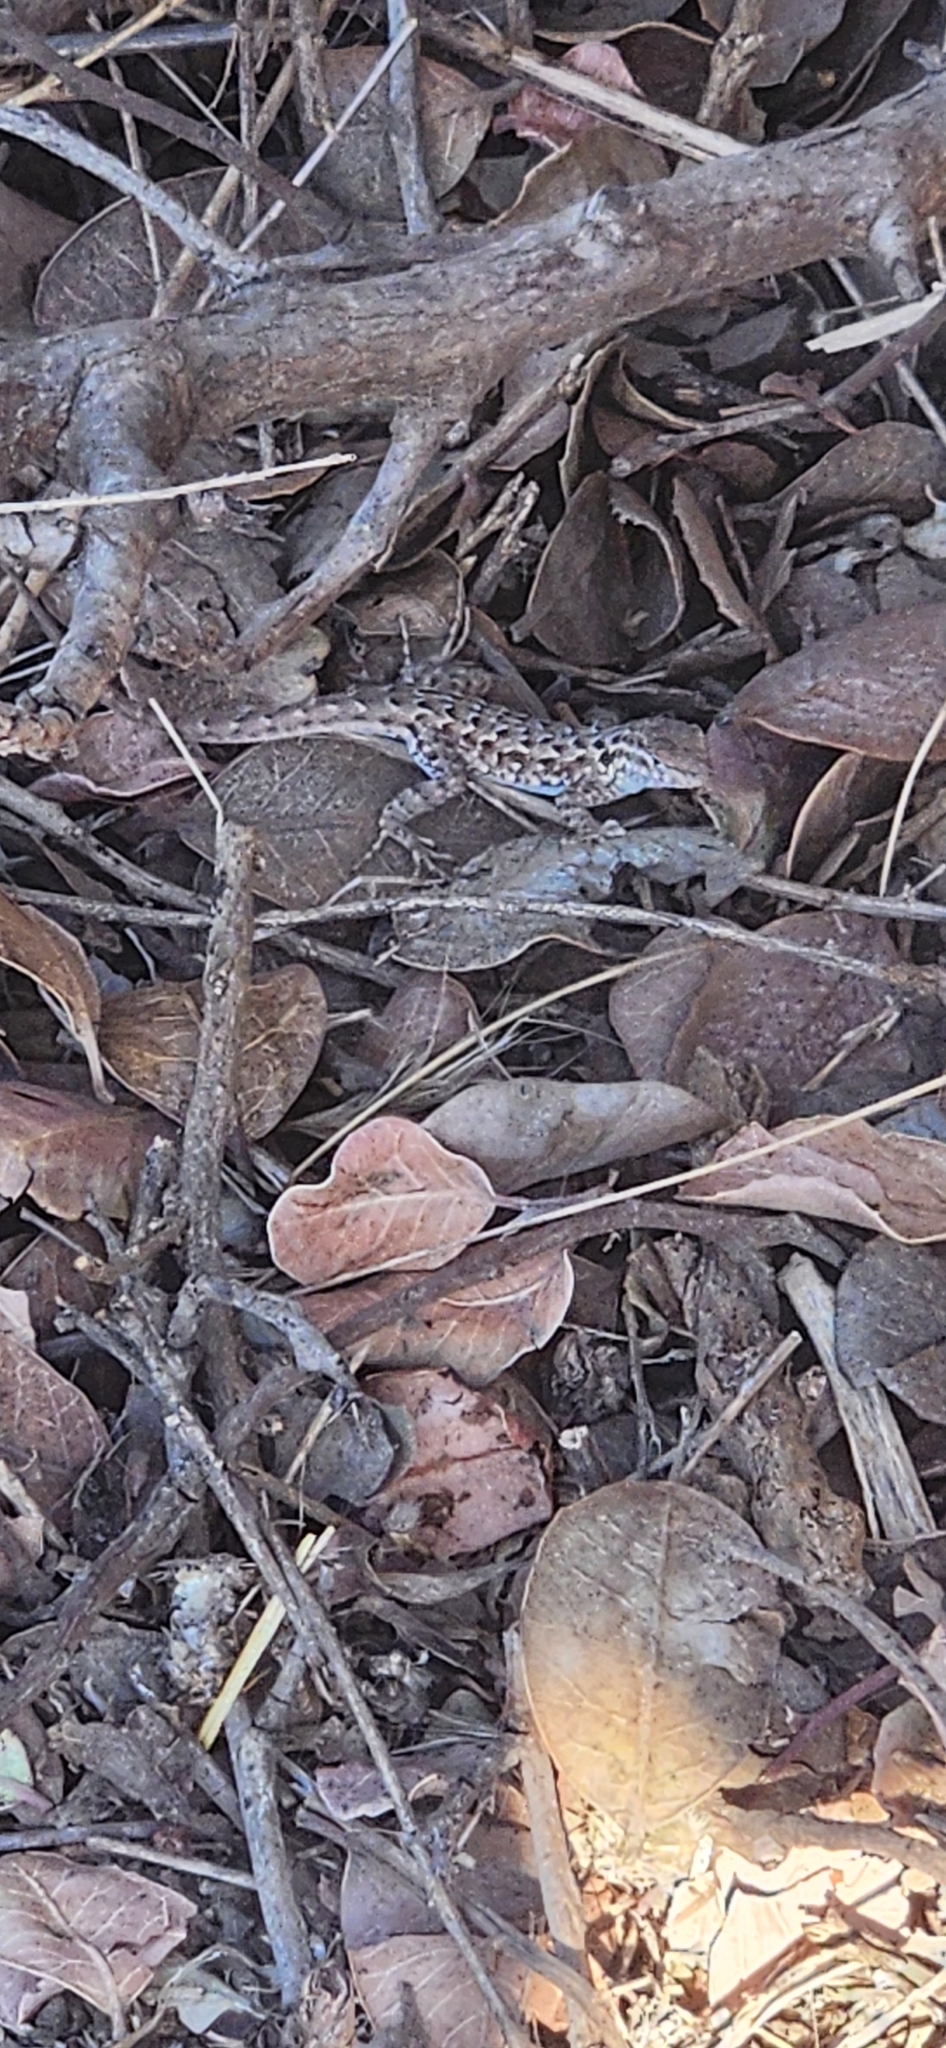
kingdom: Animalia
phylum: Chordata
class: Squamata
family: Phrynosomatidae
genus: Sceloporus
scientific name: Sceloporus occidentalis
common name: Western fence lizard
